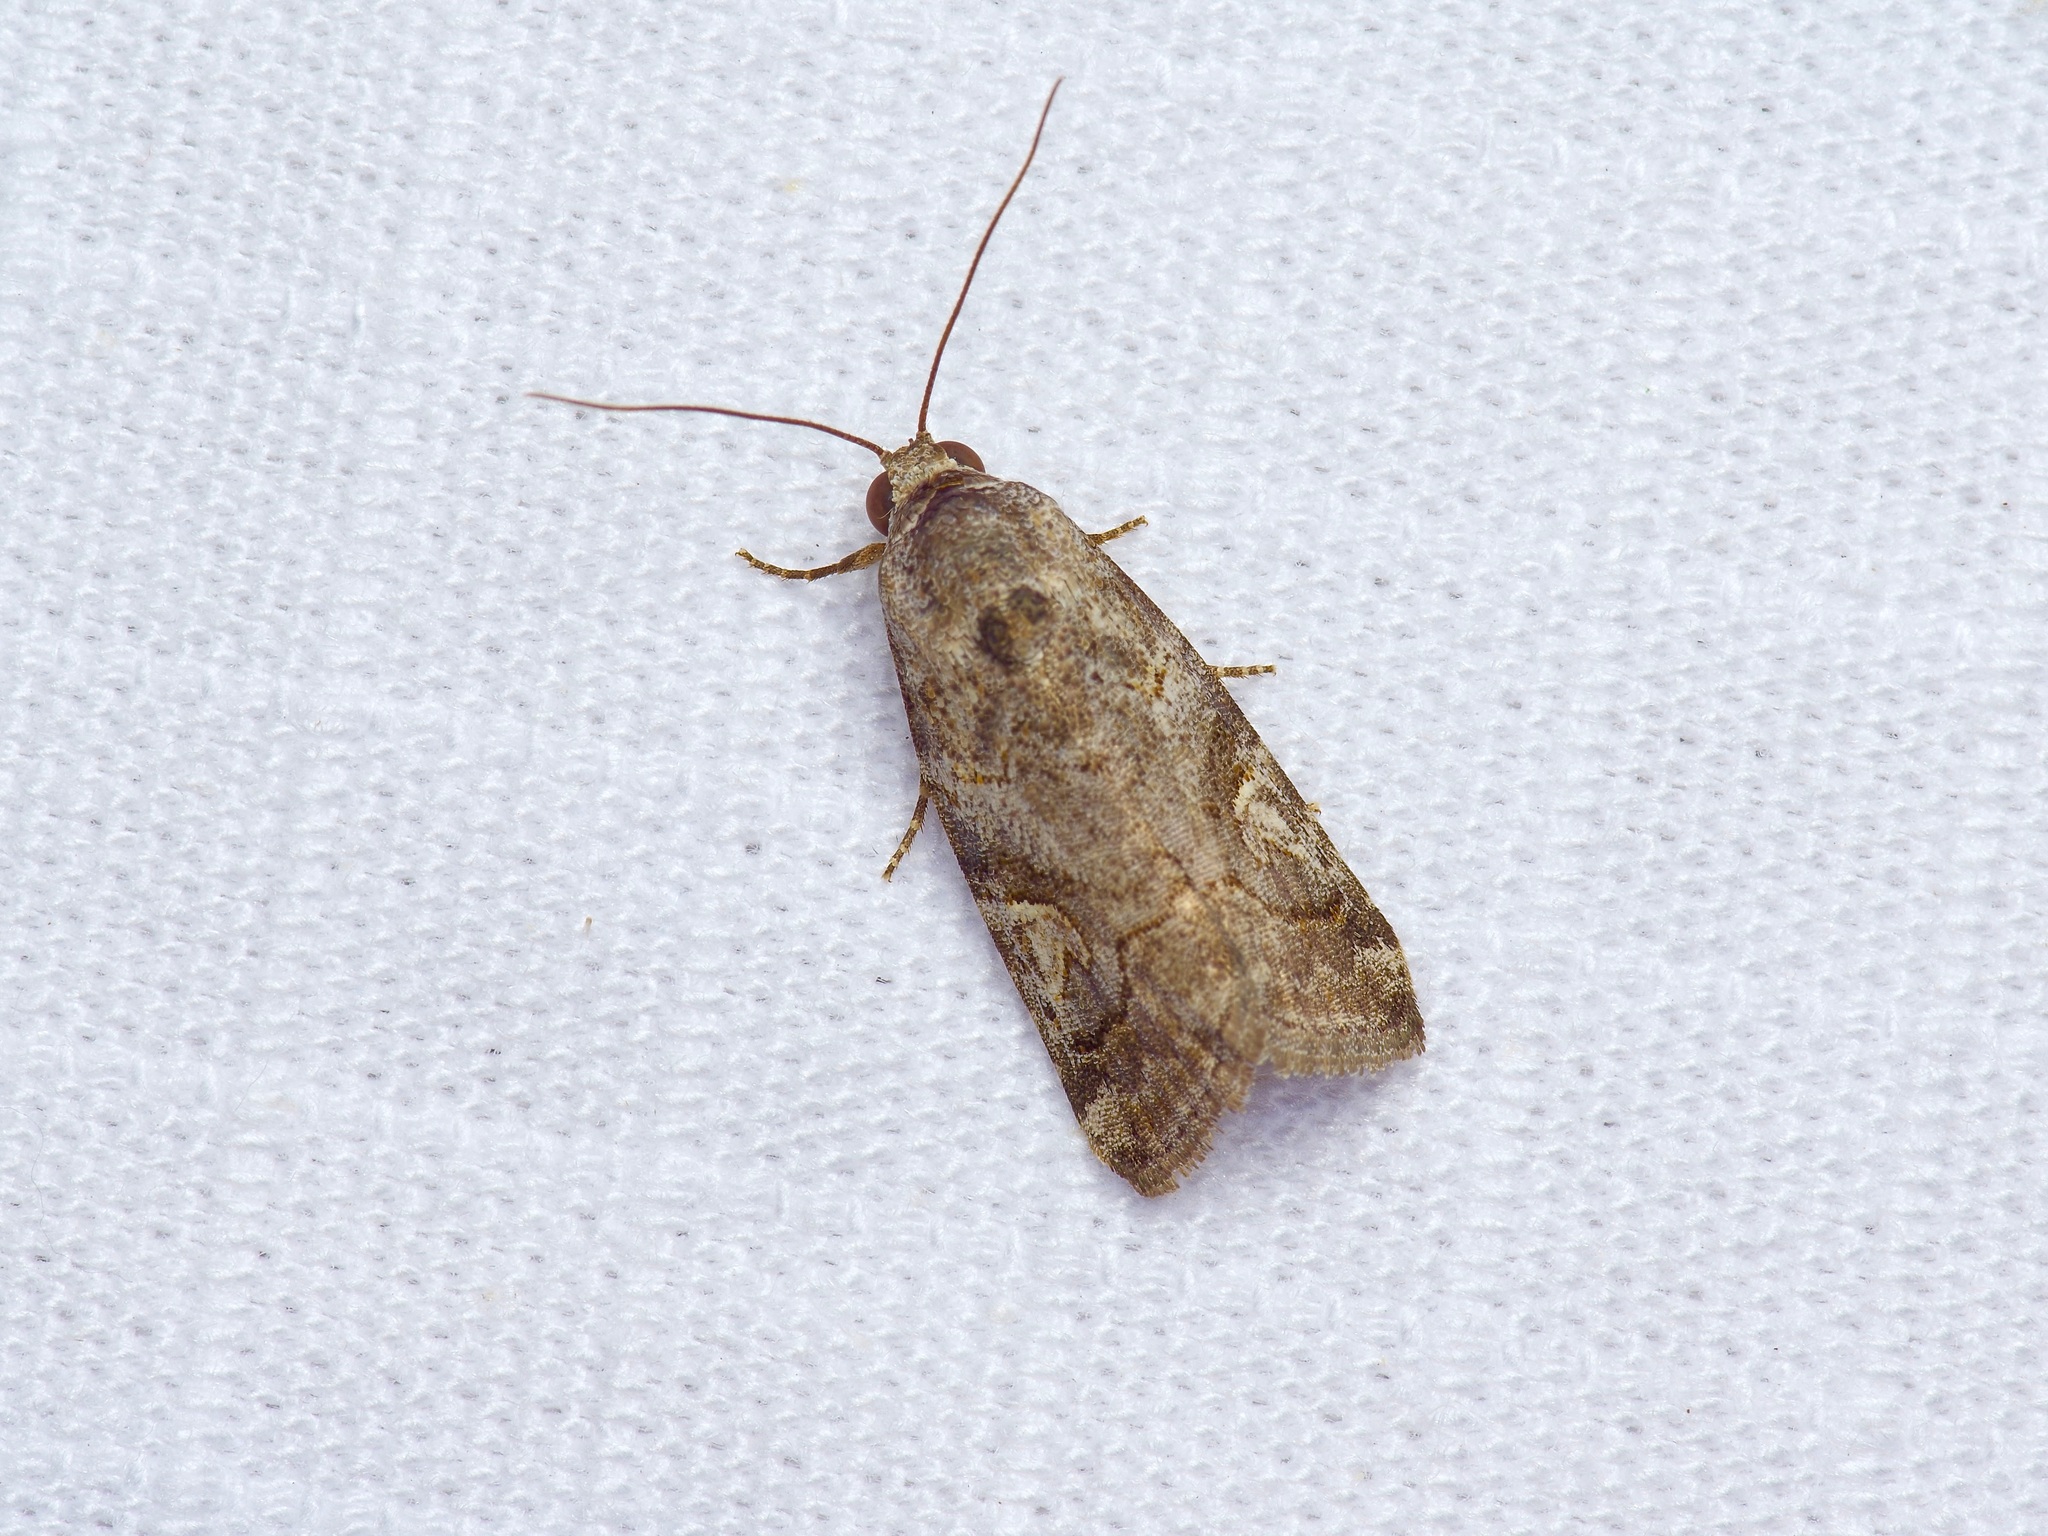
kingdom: Animalia
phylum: Arthropoda
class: Insecta
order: Lepidoptera
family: Noctuidae
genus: Metaponpneumata
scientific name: Metaponpneumata rogenhoferi
